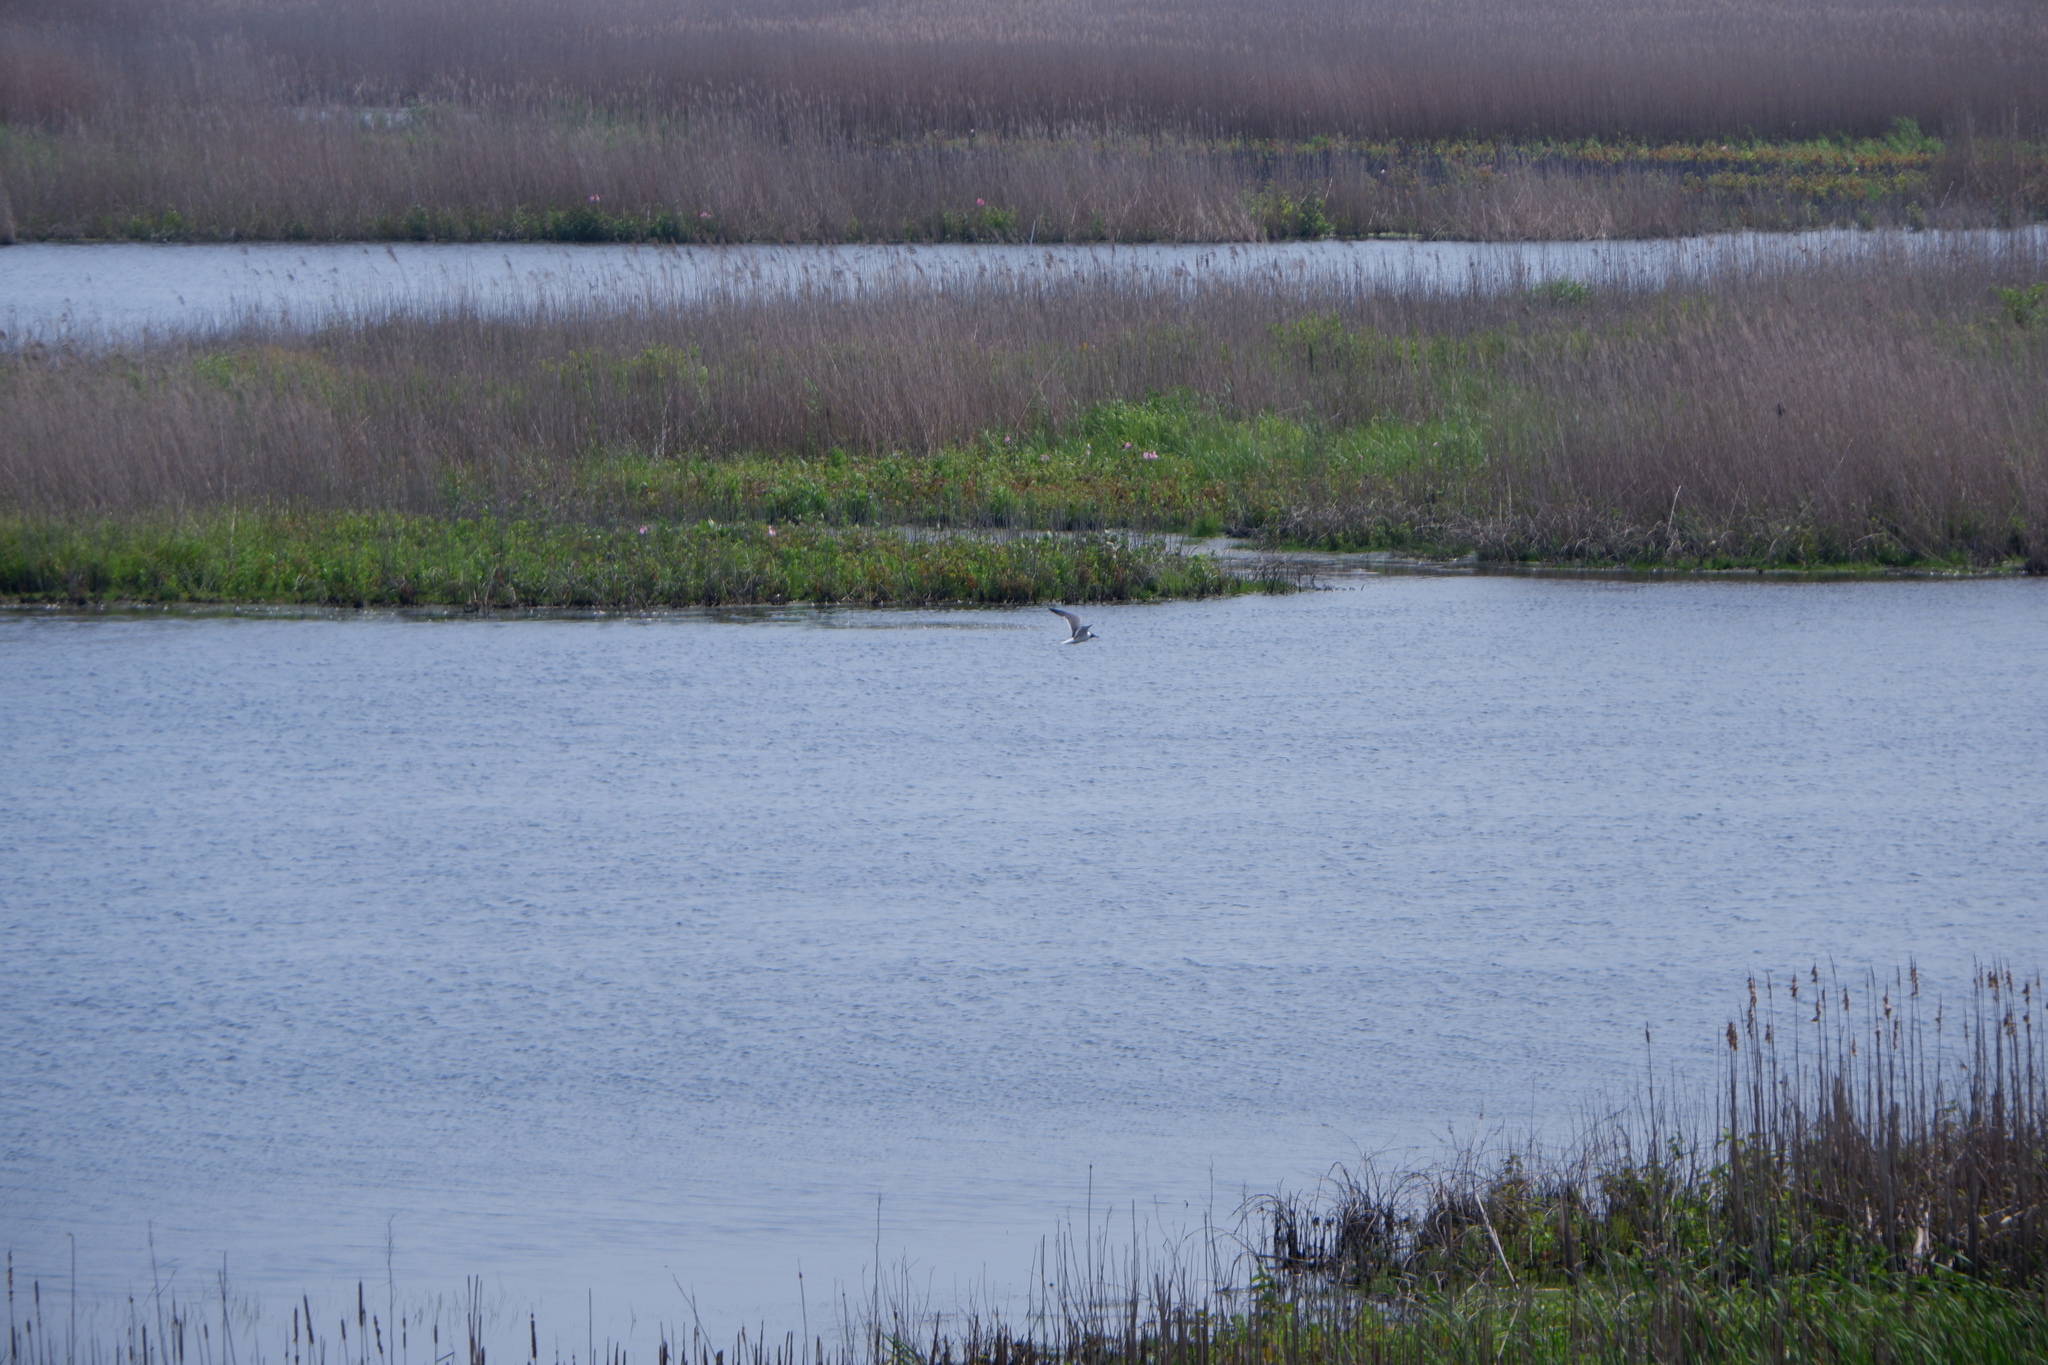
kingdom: Plantae
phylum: Tracheophyta
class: Liliopsida
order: Poales
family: Poaceae
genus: Phragmites
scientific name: Phragmites australis
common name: Common reed
